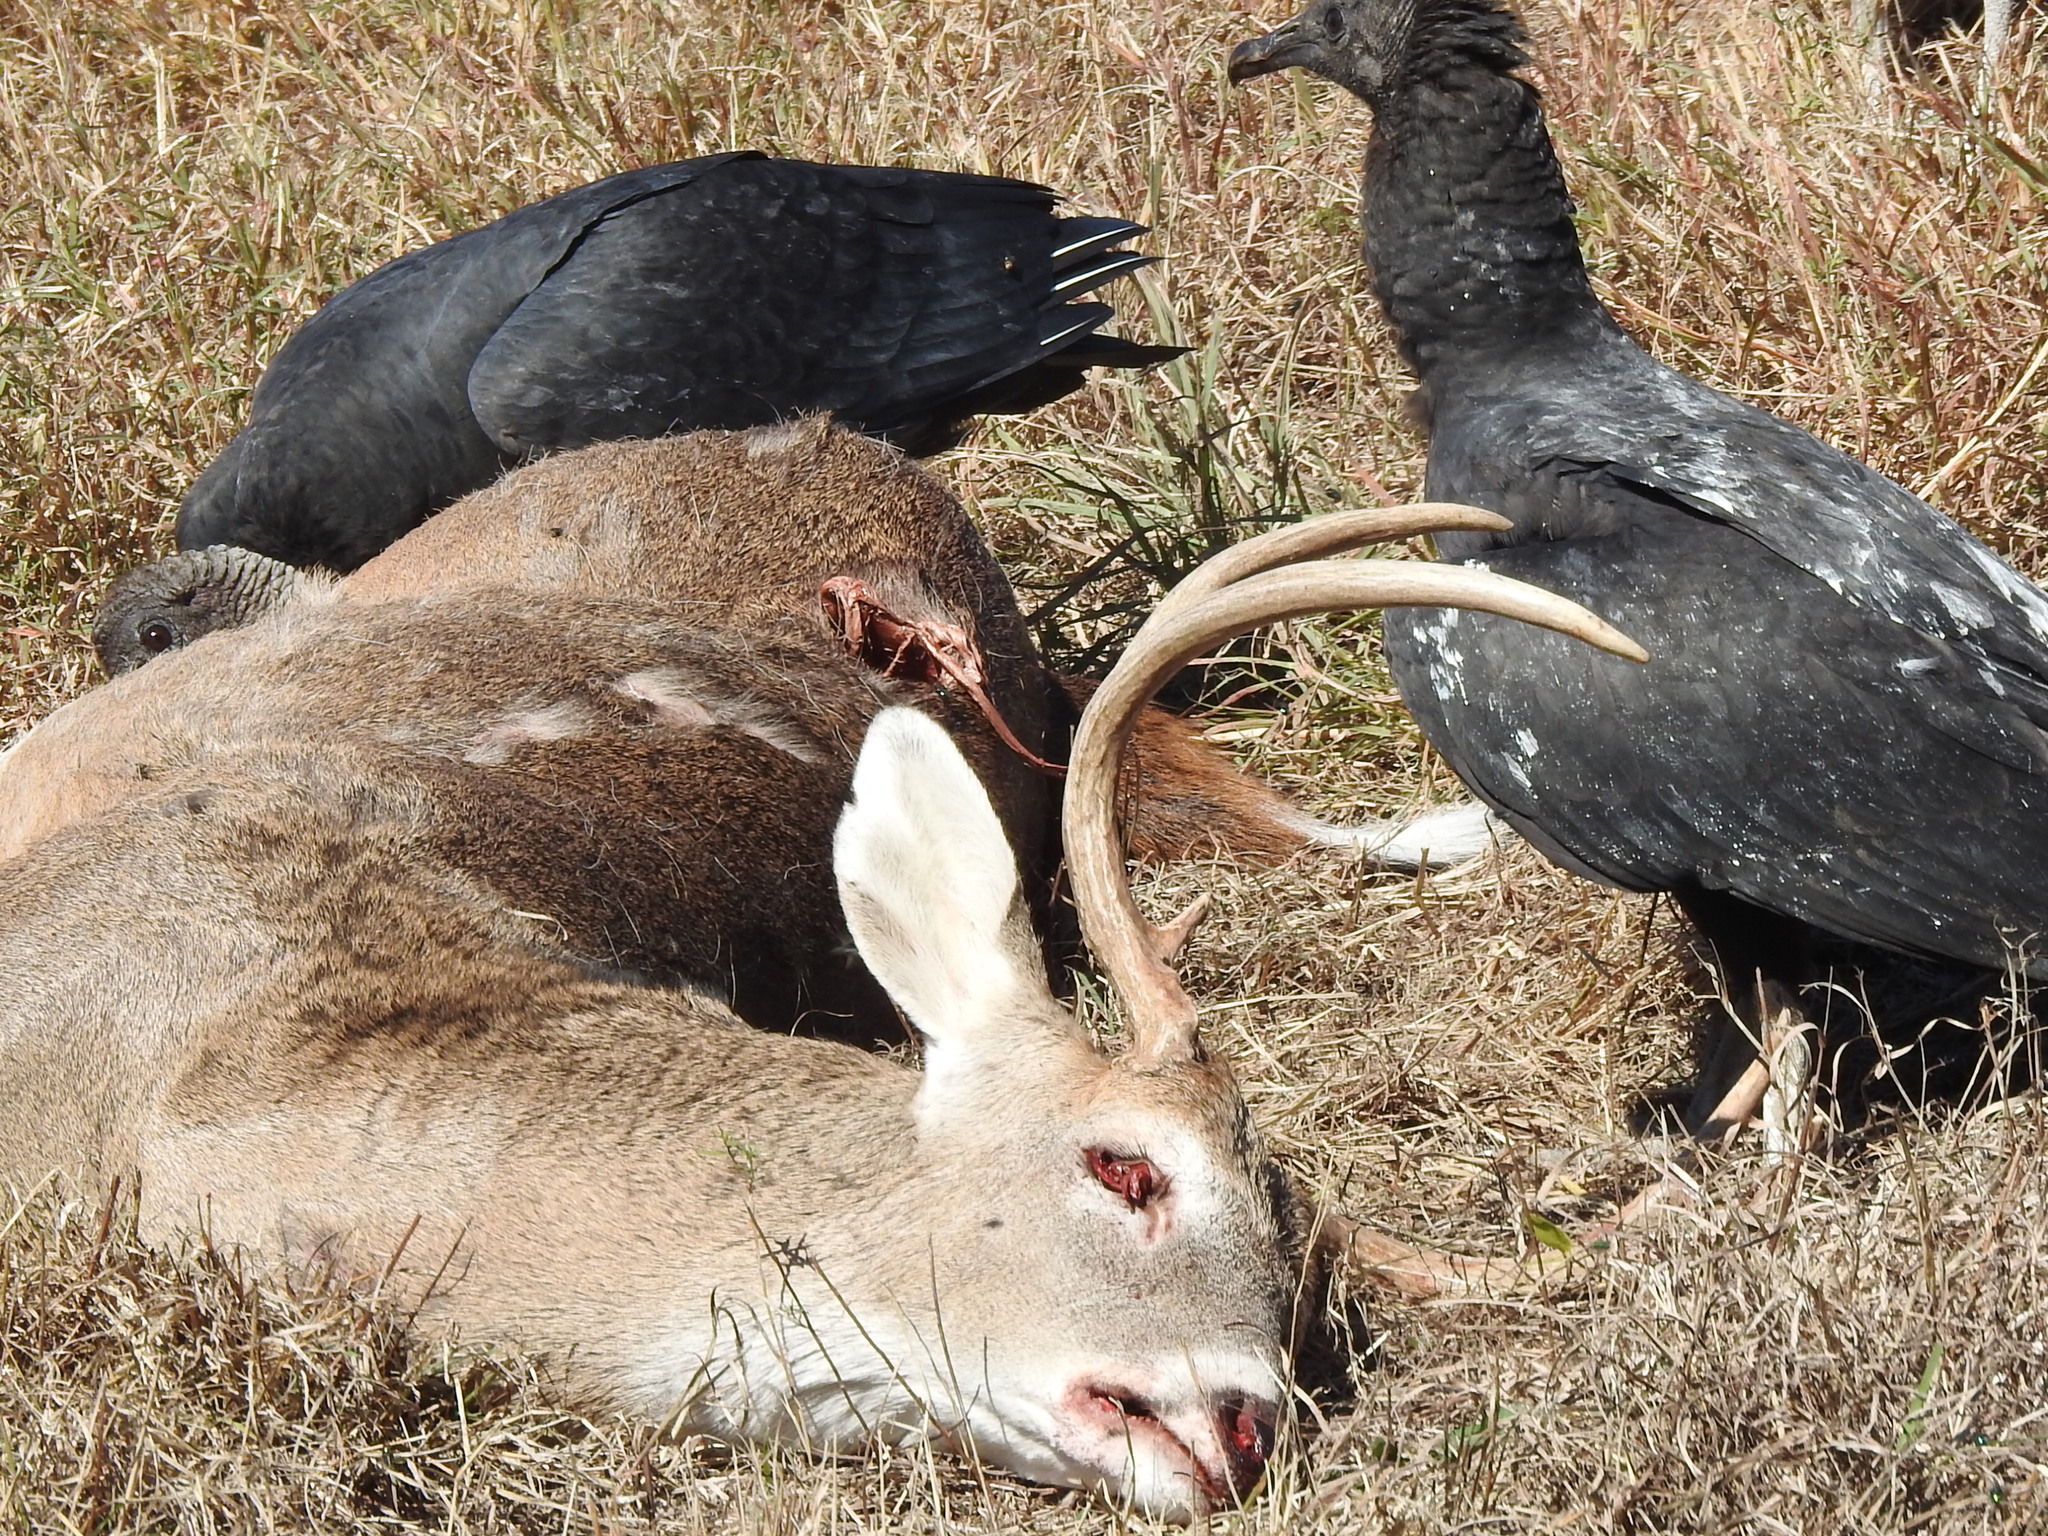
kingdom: Animalia
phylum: Chordata
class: Mammalia
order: Artiodactyla
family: Cervidae
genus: Odocoileus
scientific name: Odocoileus virginianus
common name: White-tailed deer
